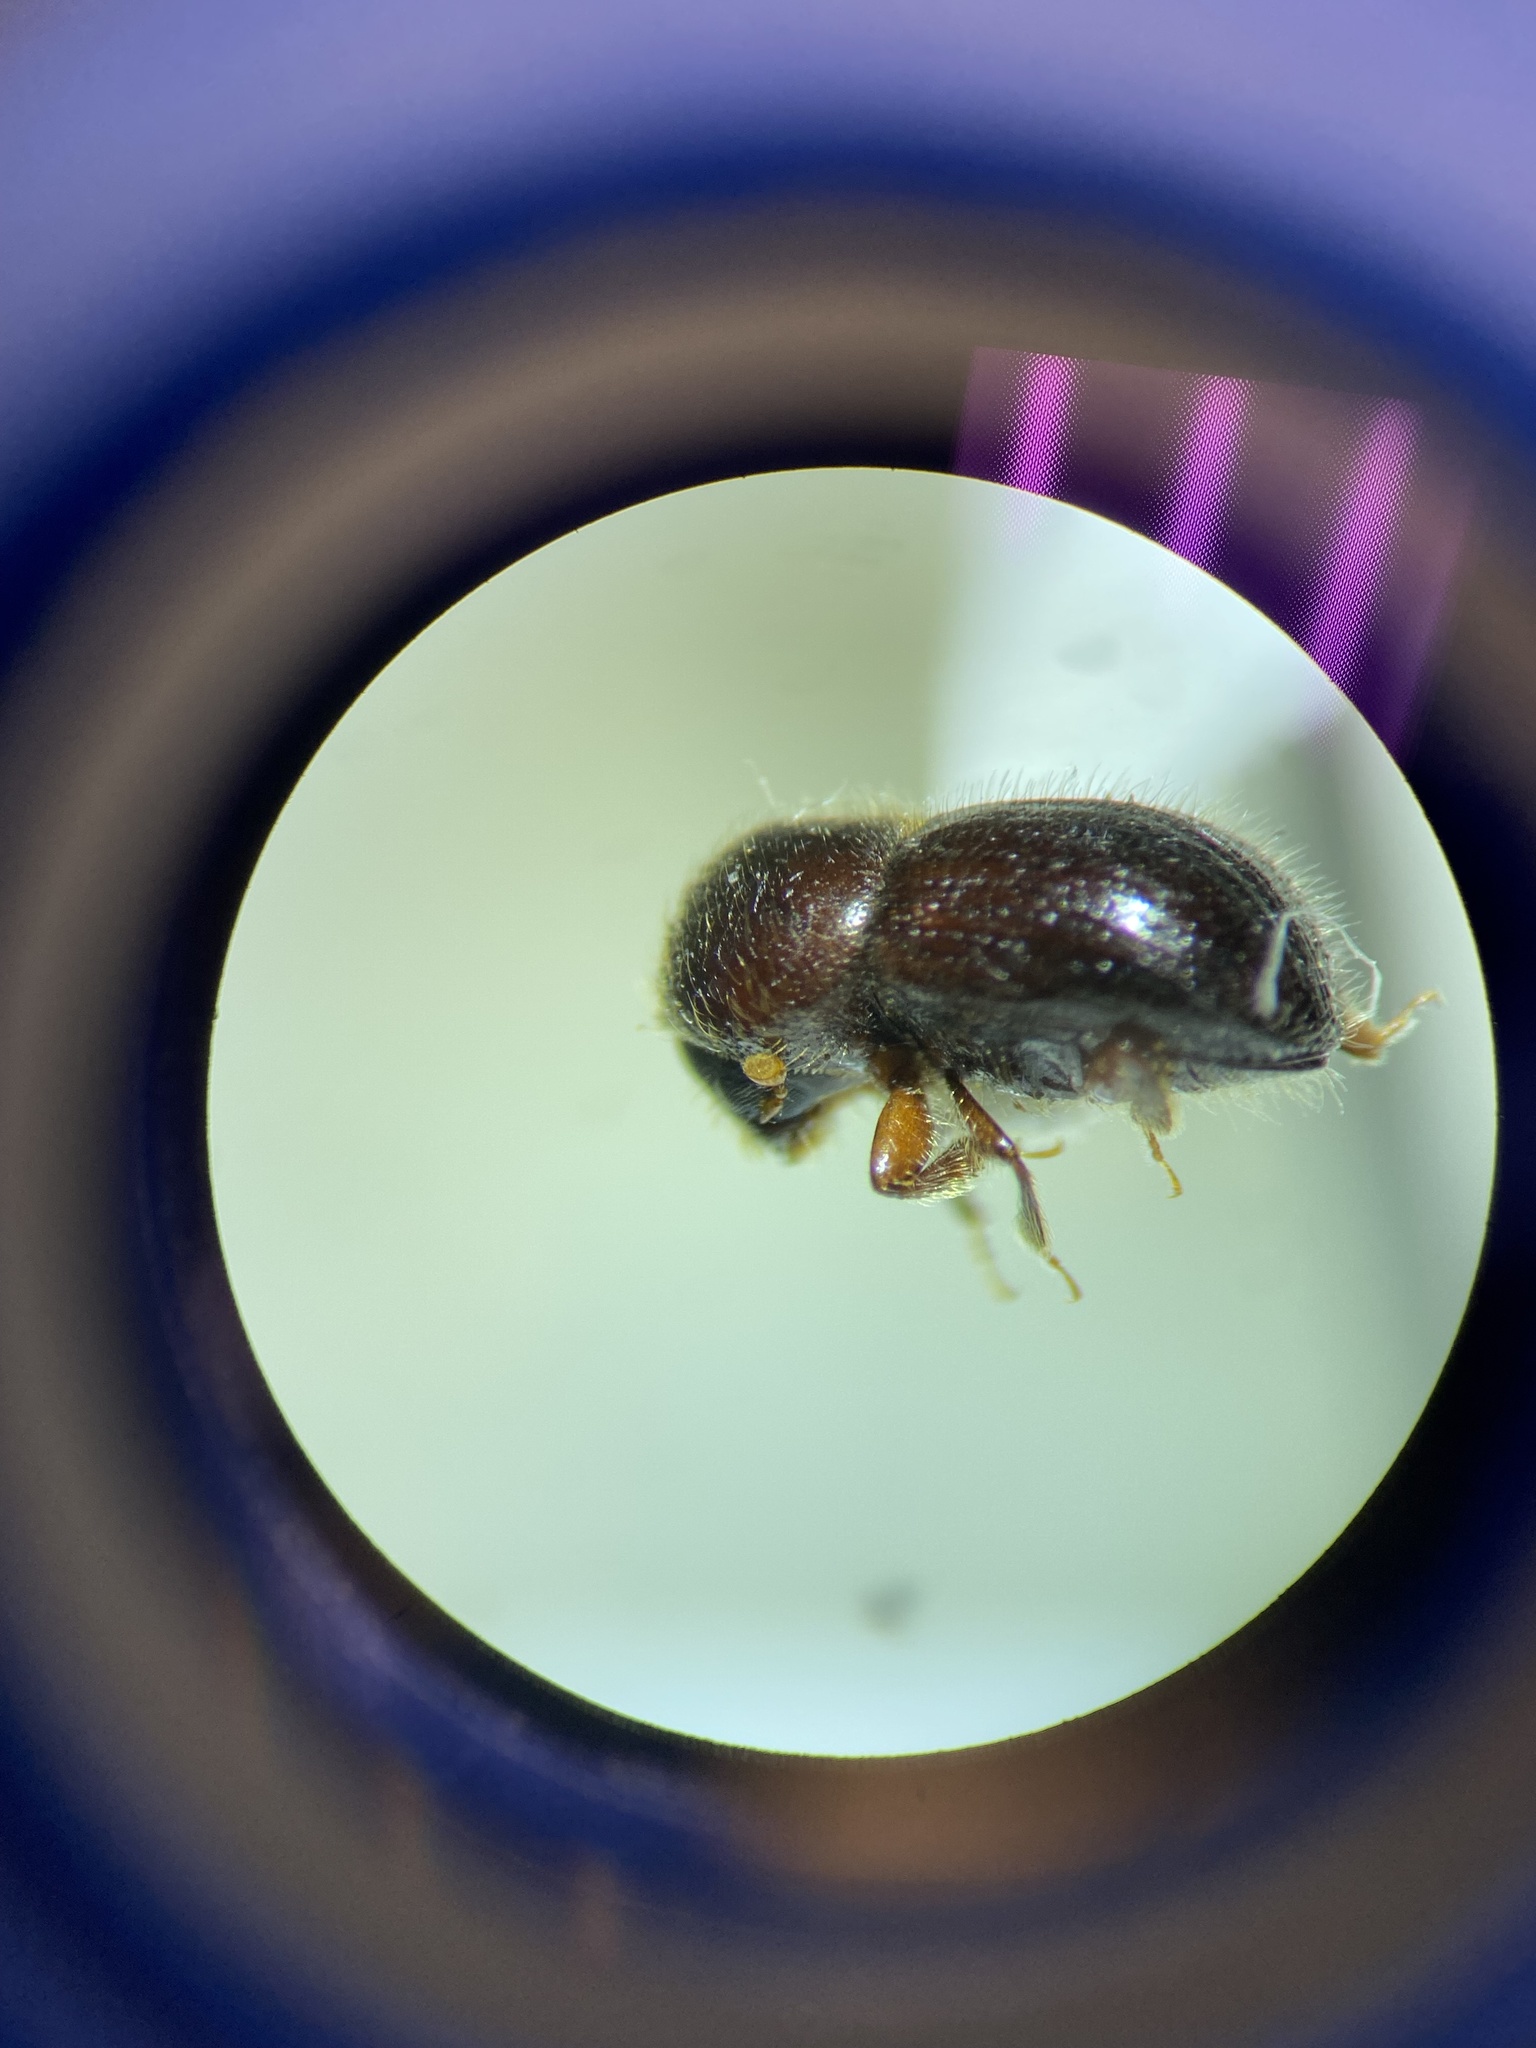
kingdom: Animalia
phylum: Arthropoda
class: Insecta
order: Coleoptera
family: Curculionidae
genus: Anisandrus
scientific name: Anisandrus sayi
